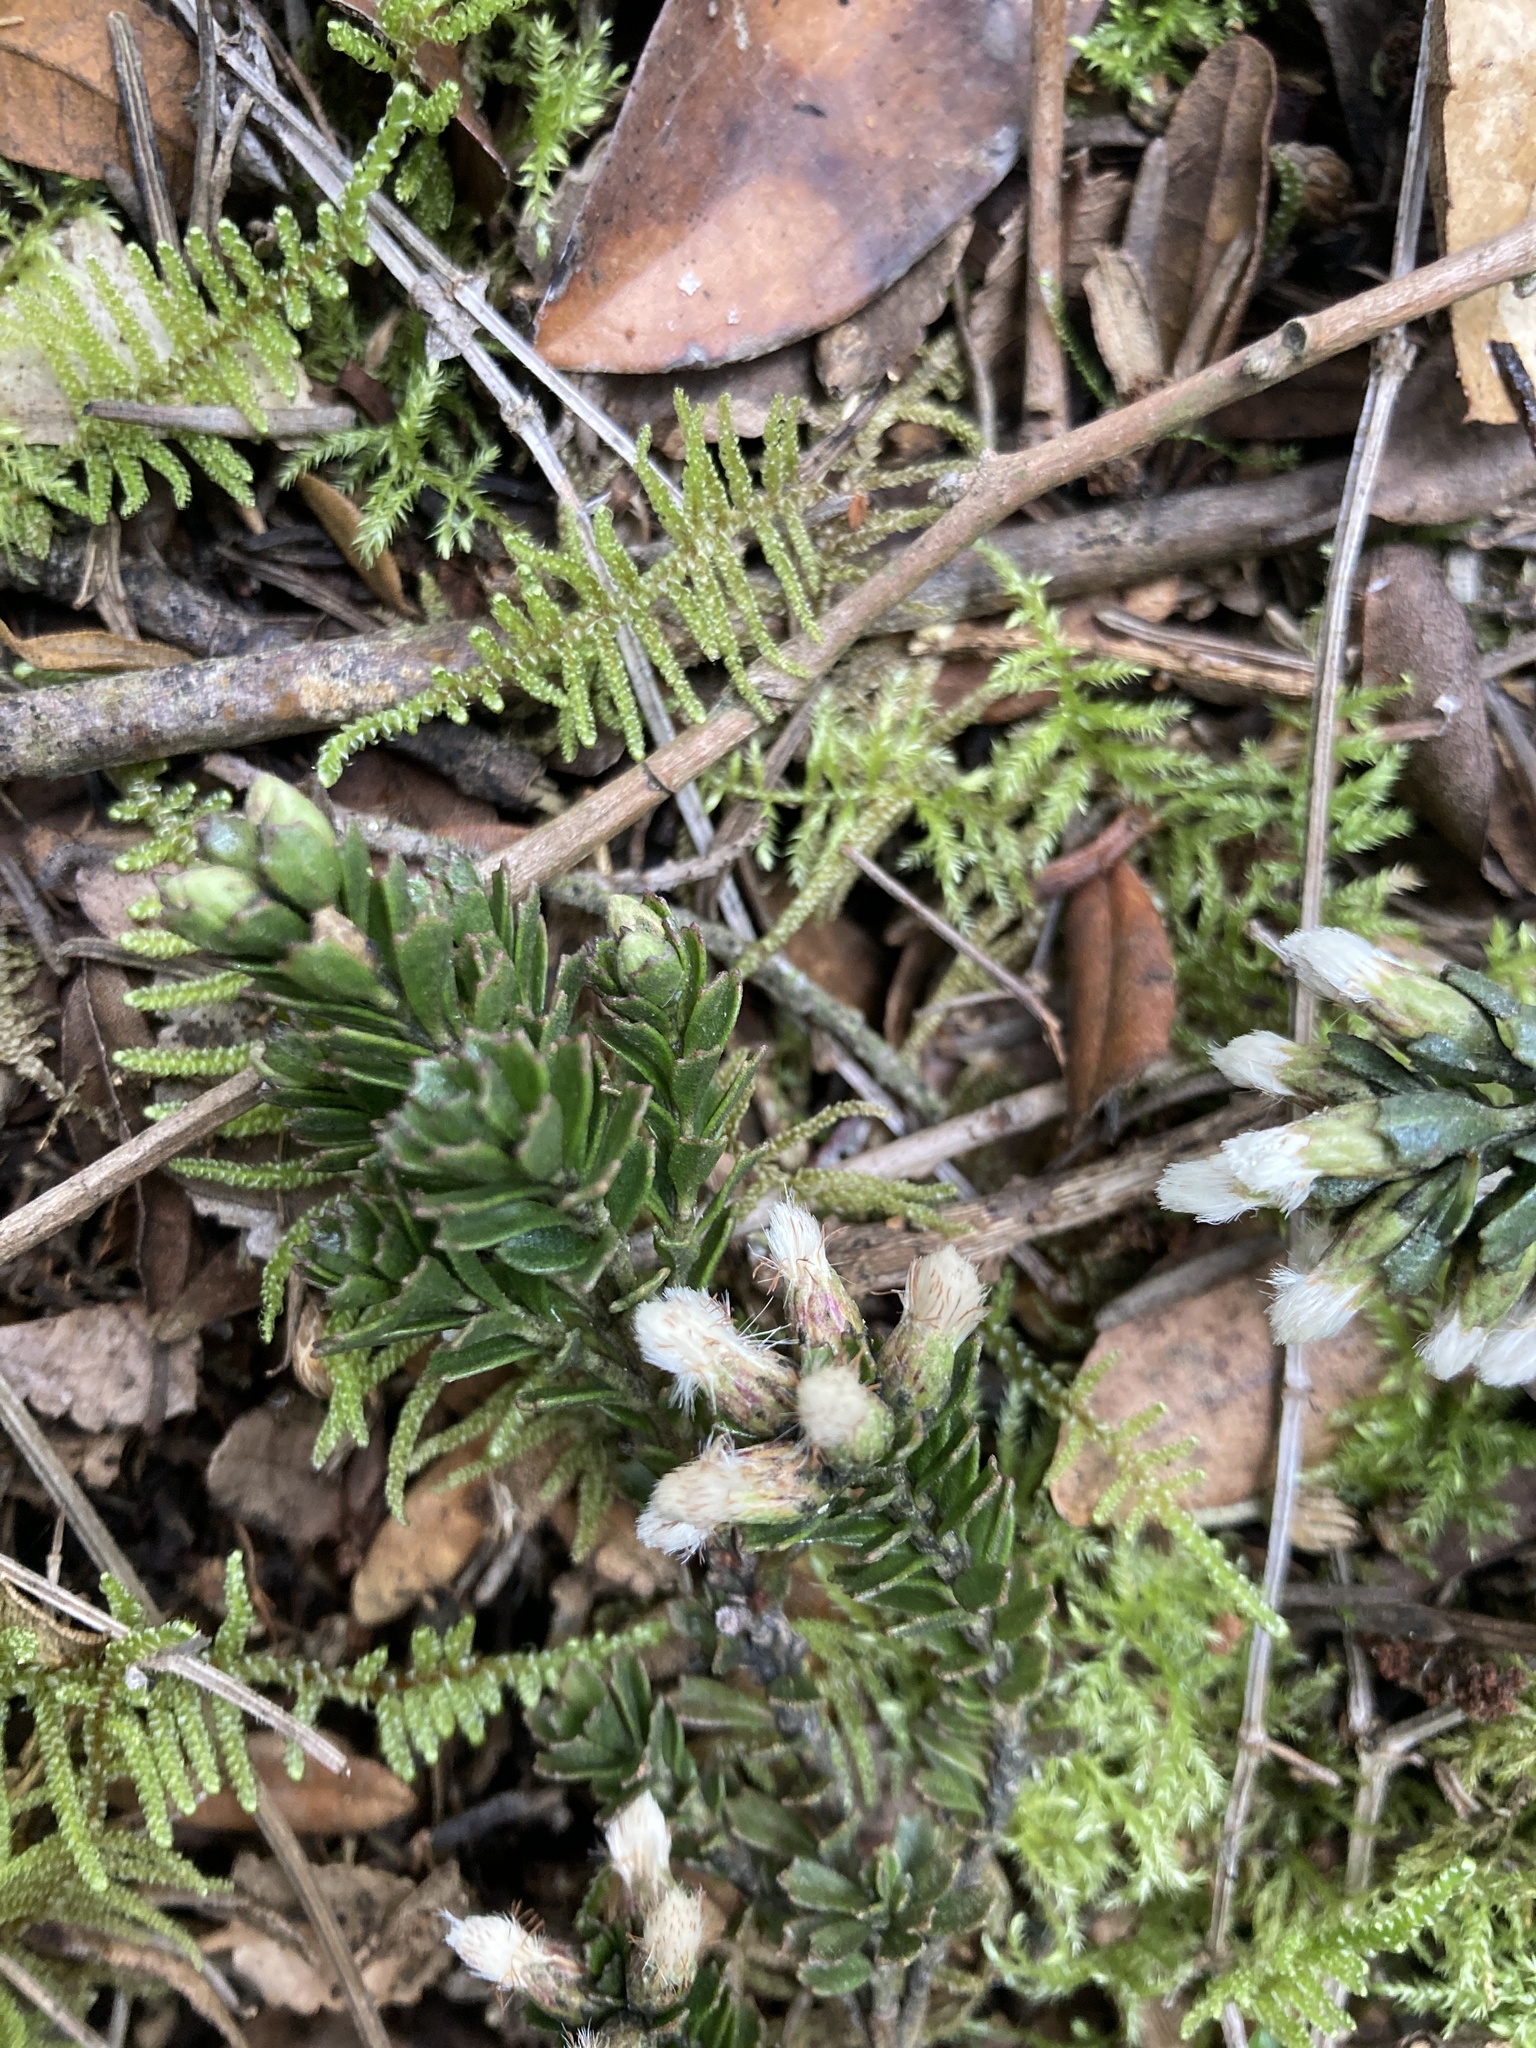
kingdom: Plantae
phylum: Tracheophyta
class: Magnoliopsida
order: Asterales
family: Asteraceae
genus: Baccharis
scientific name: Baccharis tricuneata
